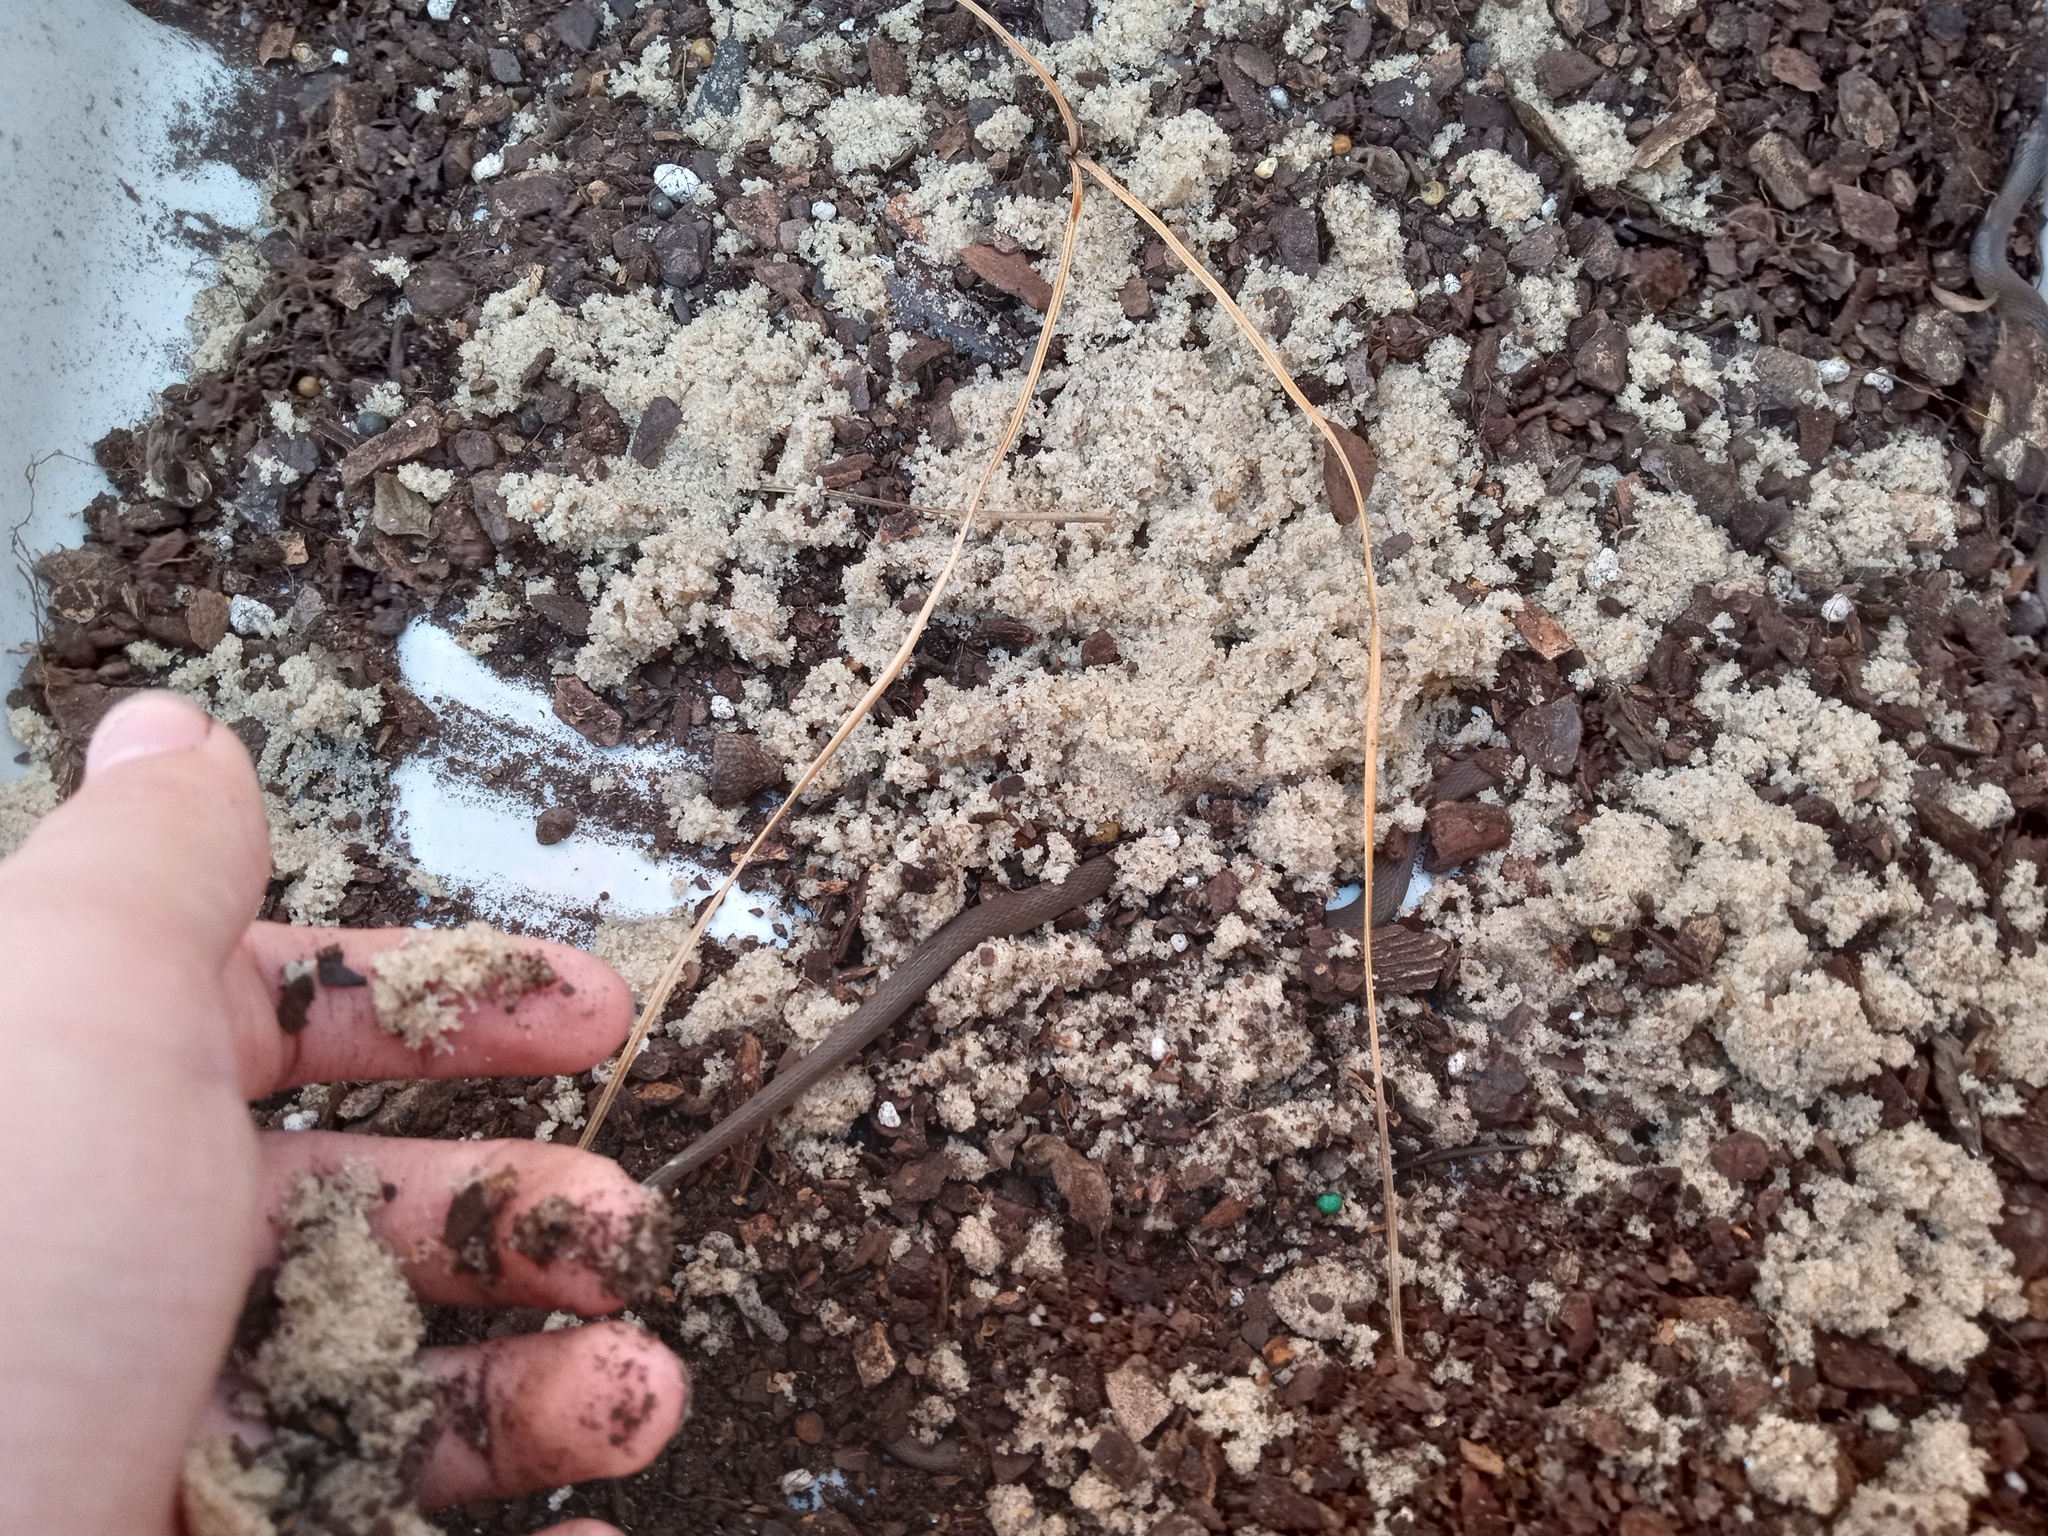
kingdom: Animalia
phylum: Chordata
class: Squamata
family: Colubridae
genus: Haldea
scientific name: Haldea striatula
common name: Rough earth snake
